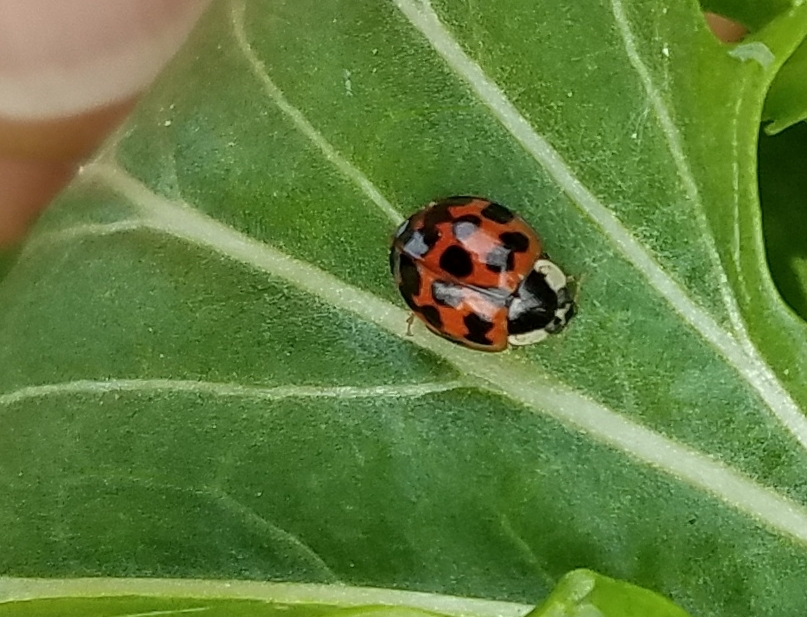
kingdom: Animalia
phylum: Arthropoda
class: Insecta
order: Coleoptera
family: Coccinellidae
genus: Harmonia
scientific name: Harmonia axyridis
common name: Harlequin ladybird
